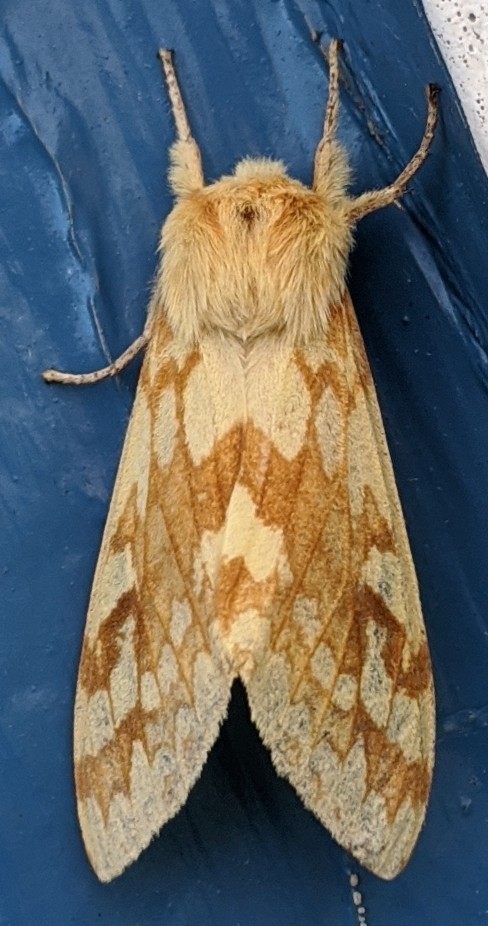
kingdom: Animalia
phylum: Arthropoda
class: Insecta
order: Lepidoptera
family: Erebidae
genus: Lophocampa
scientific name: Lophocampa maculata
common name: Spotted tussock moth
